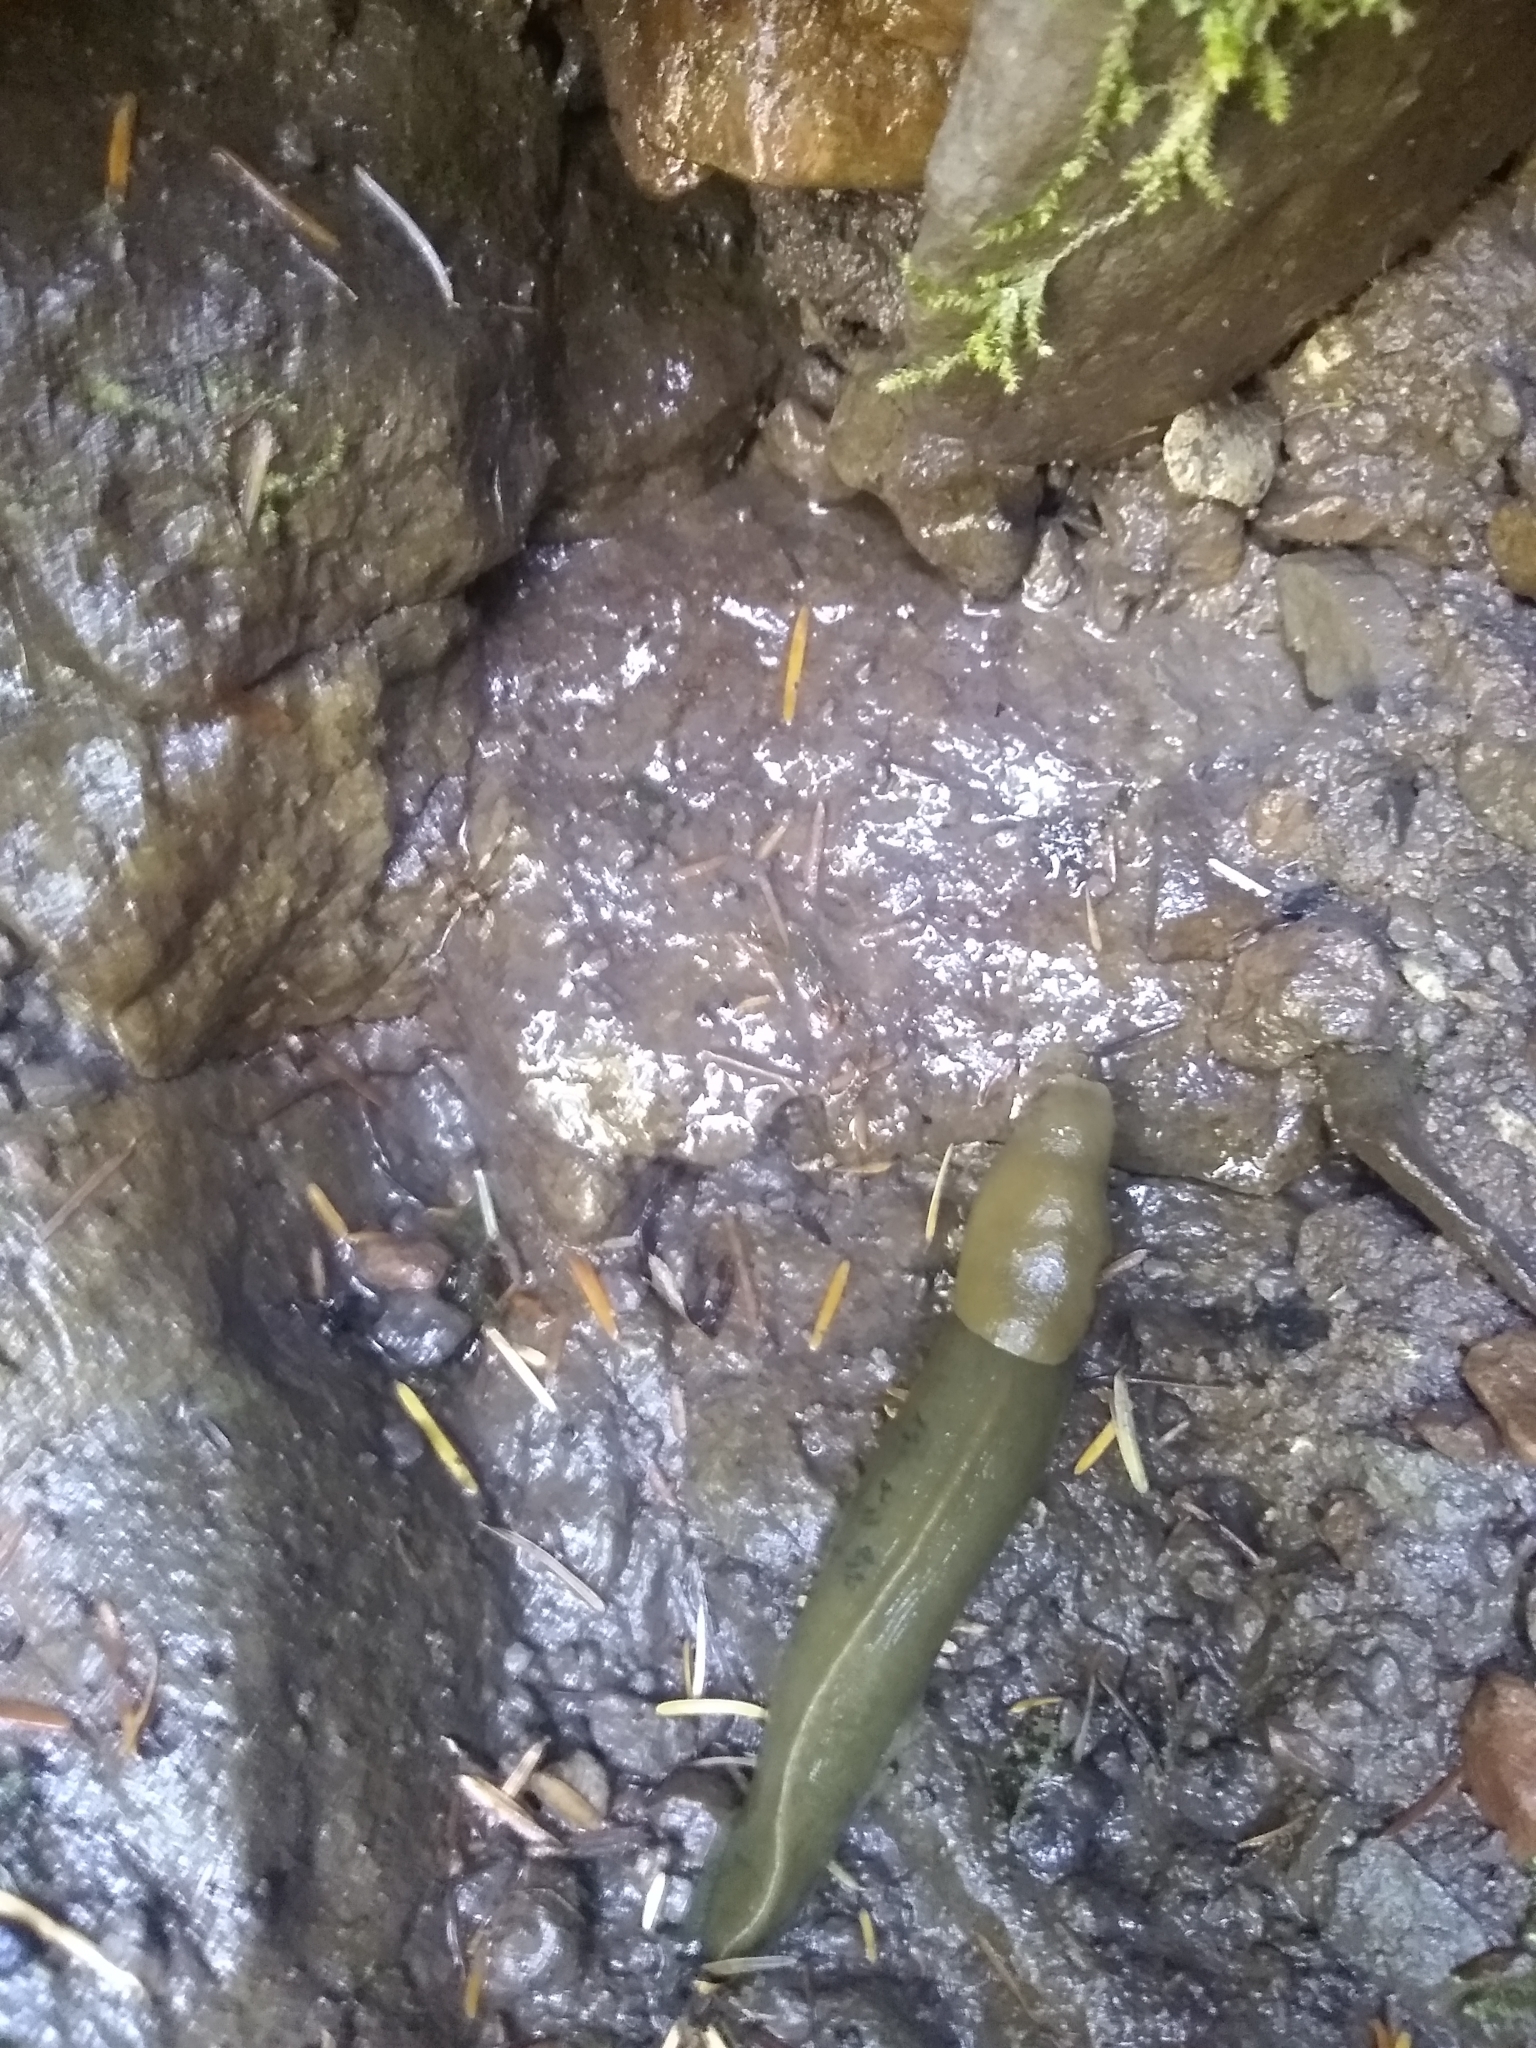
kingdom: Animalia
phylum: Mollusca
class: Gastropoda
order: Stylommatophora
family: Ariolimacidae
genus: Ariolimax
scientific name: Ariolimax columbianus
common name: Pacific banana slug
